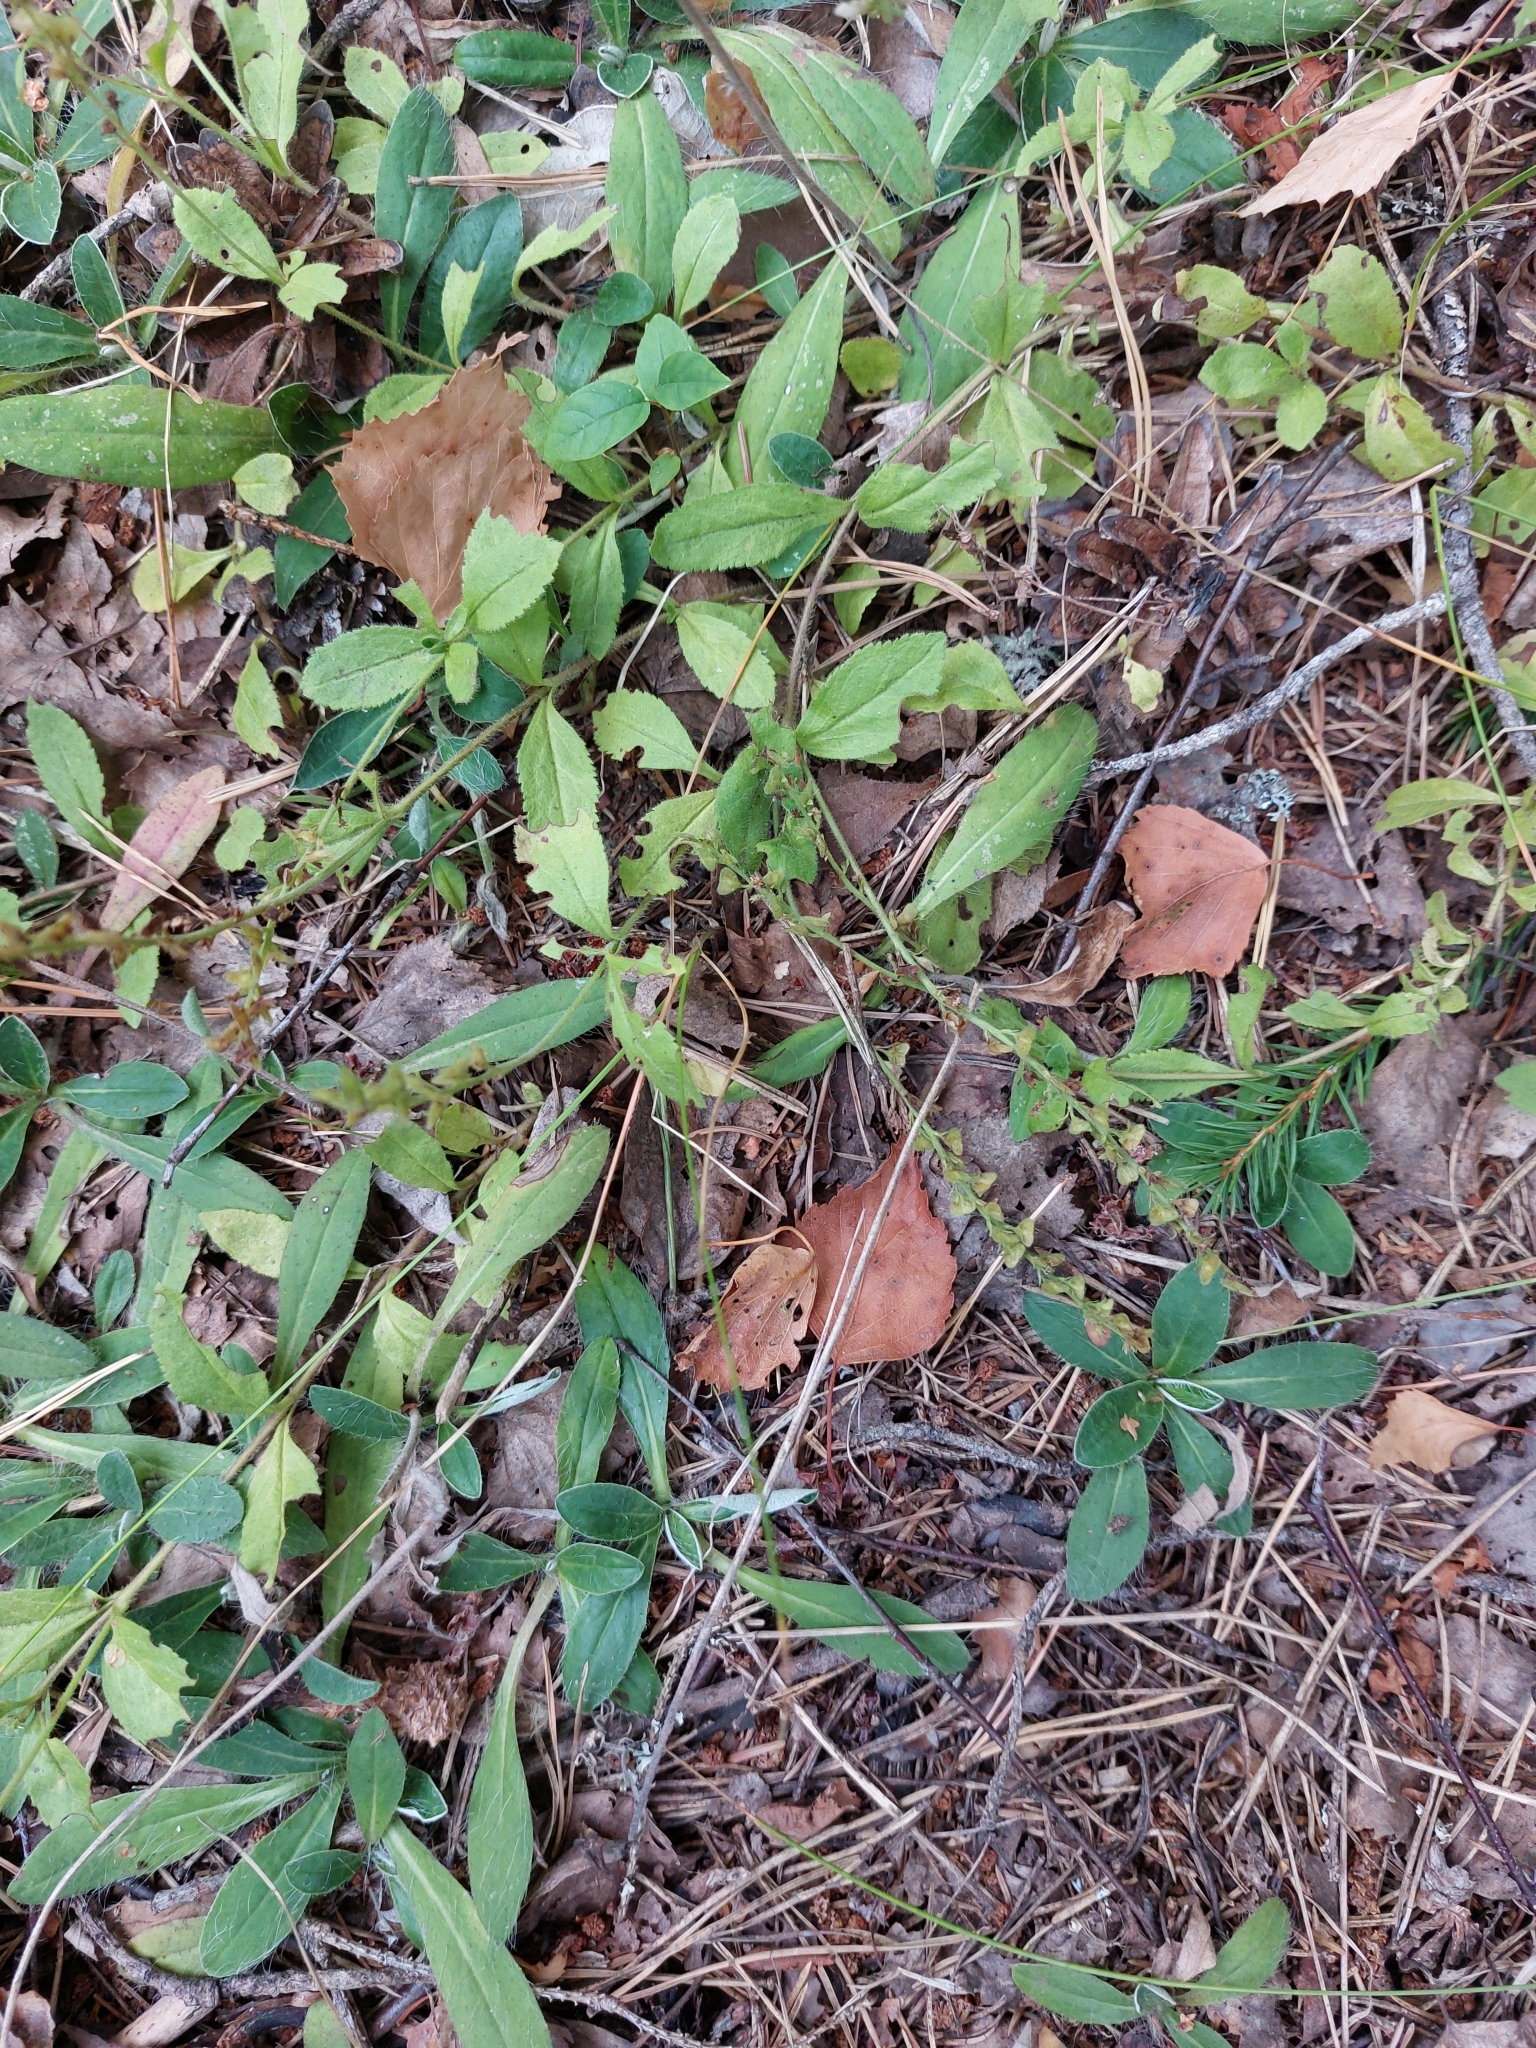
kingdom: Plantae
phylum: Tracheophyta
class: Magnoliopsida
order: Lamiales
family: Plantaginaceae
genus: Veronica
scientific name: Veronica officinalis
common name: Common speedwell
